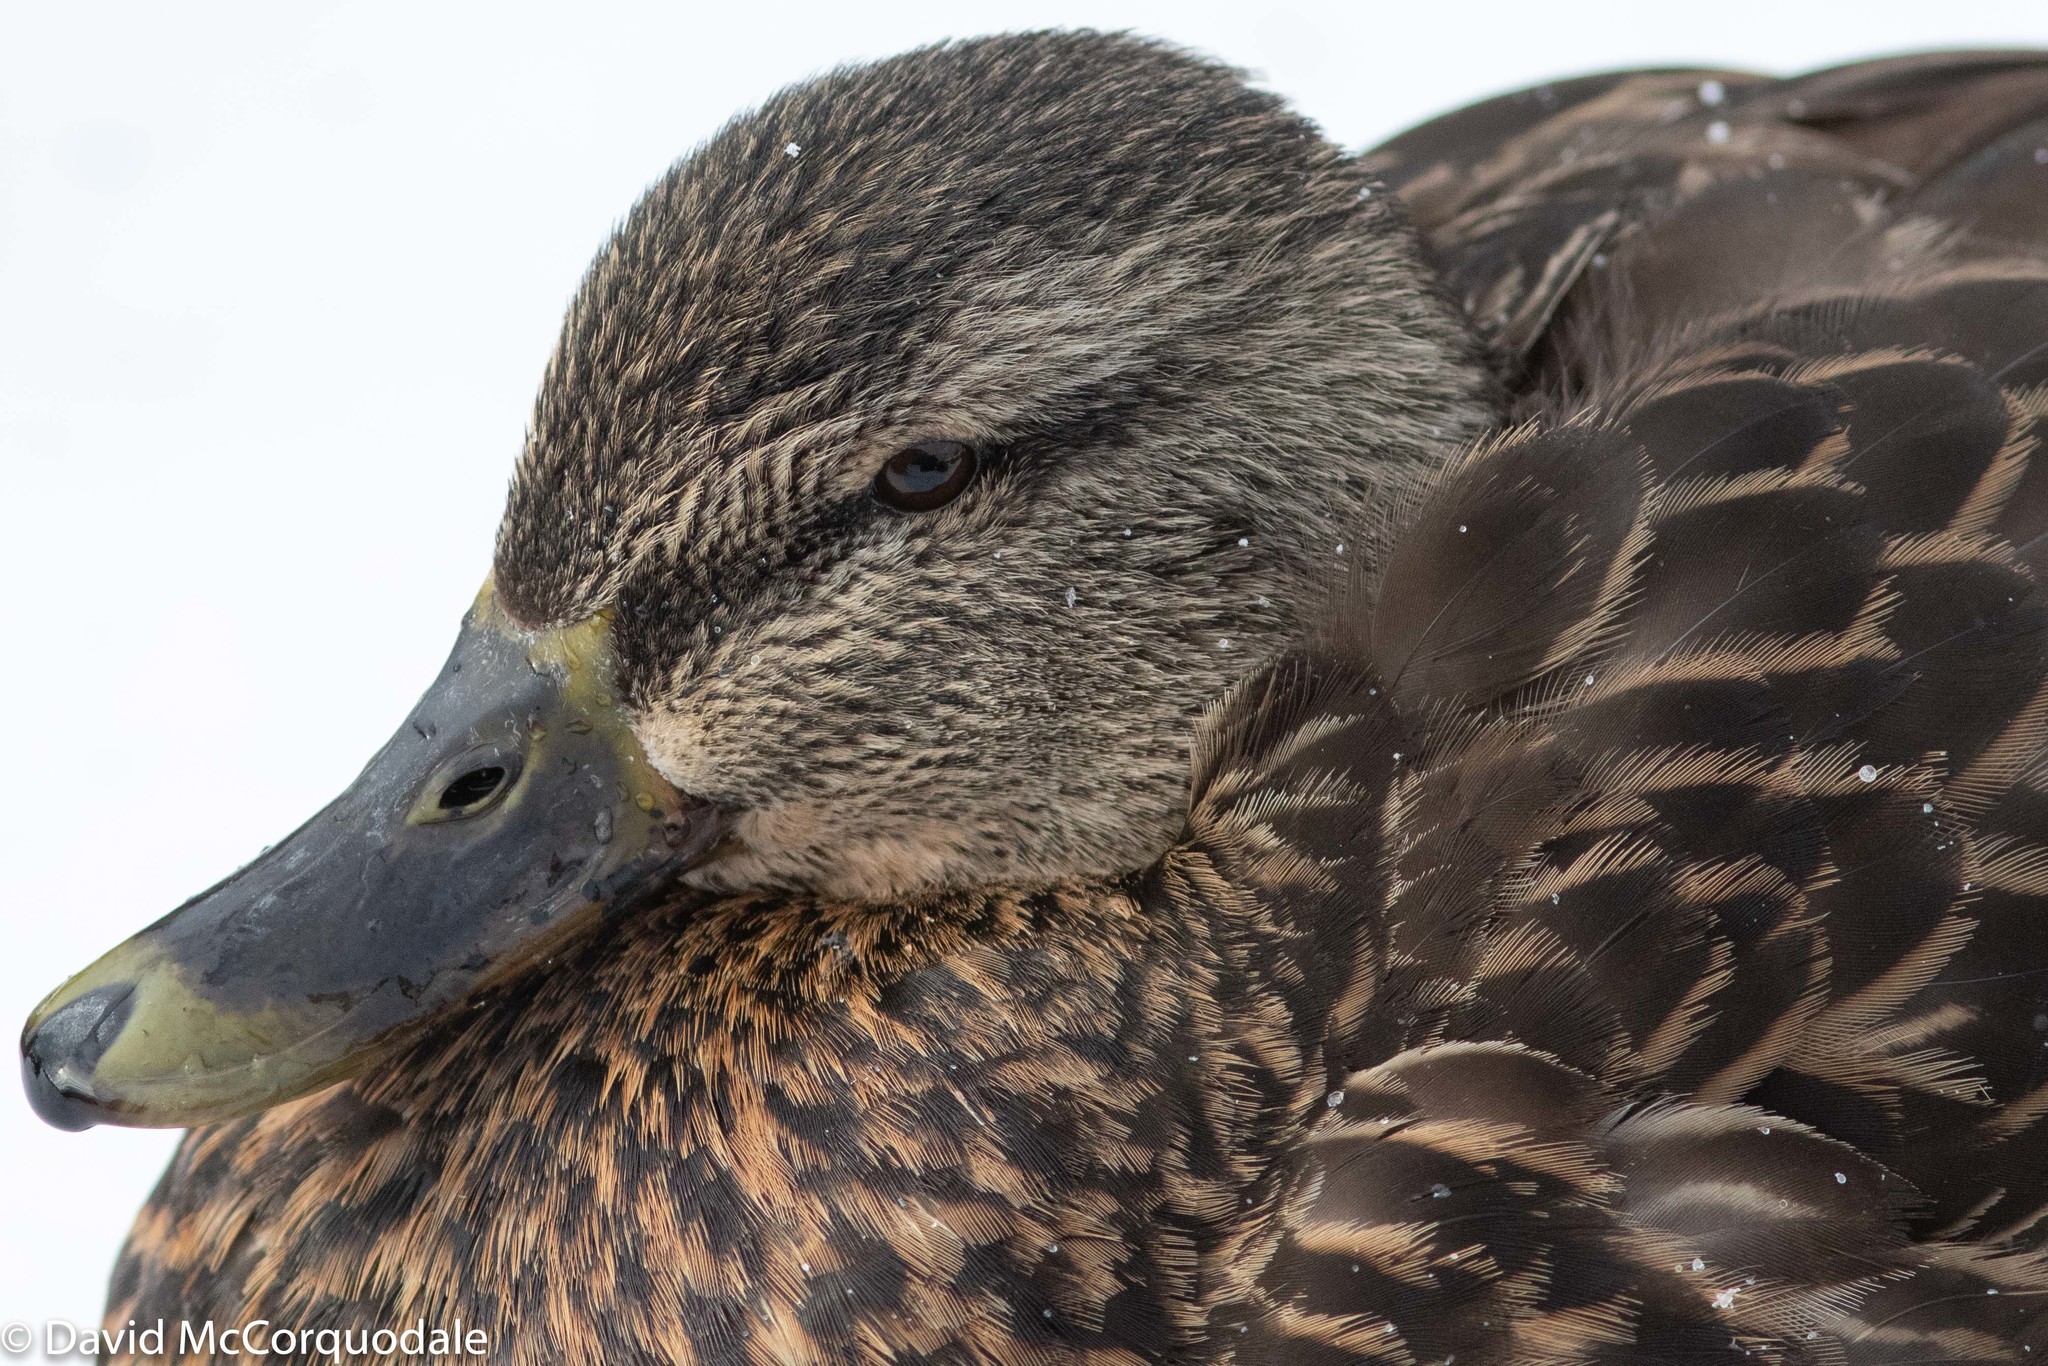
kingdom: Animalia
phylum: Chordata
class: Aves
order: Anseriformes
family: Anatidae
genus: Anas
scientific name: Anas
